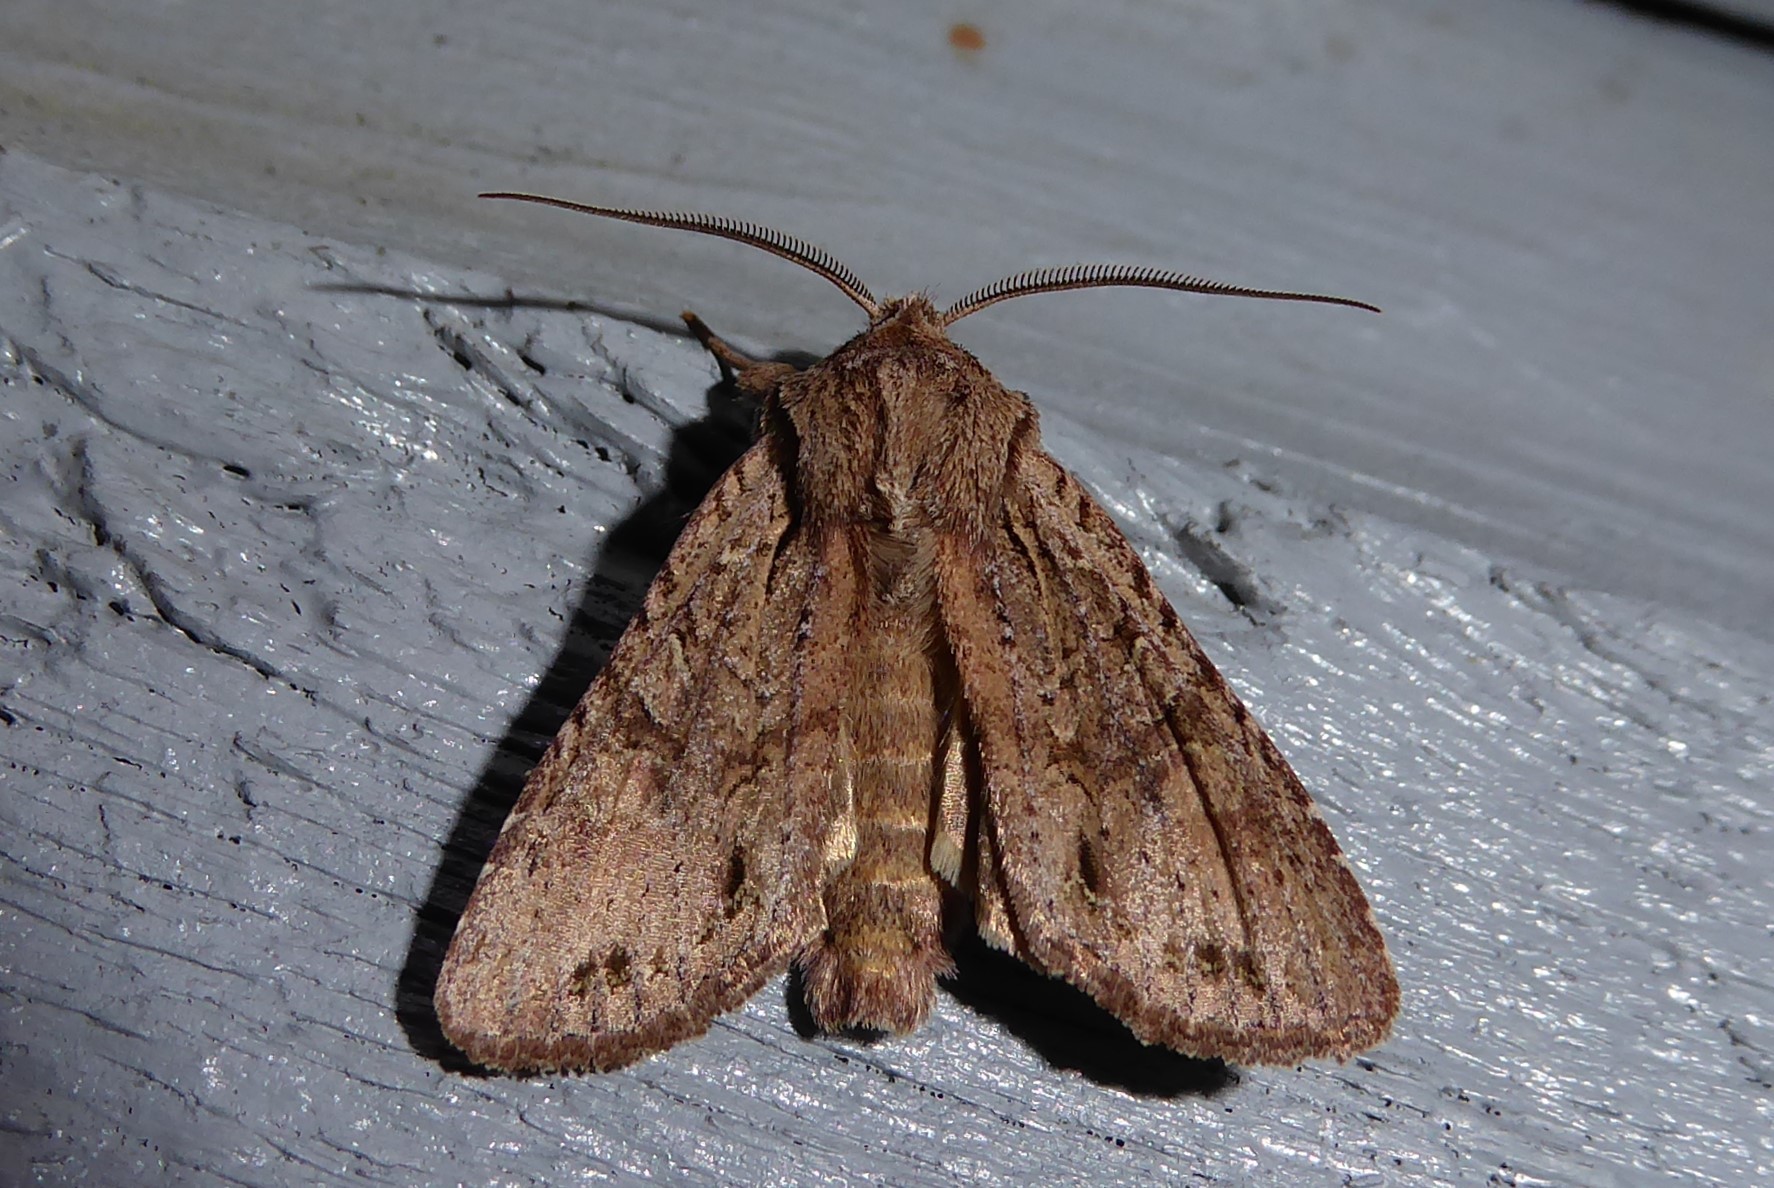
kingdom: Animalia
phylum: Arthropoda
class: Insecta
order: Lepidoptera
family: Noctuidae
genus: Ichneutica
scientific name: Ichneutica
